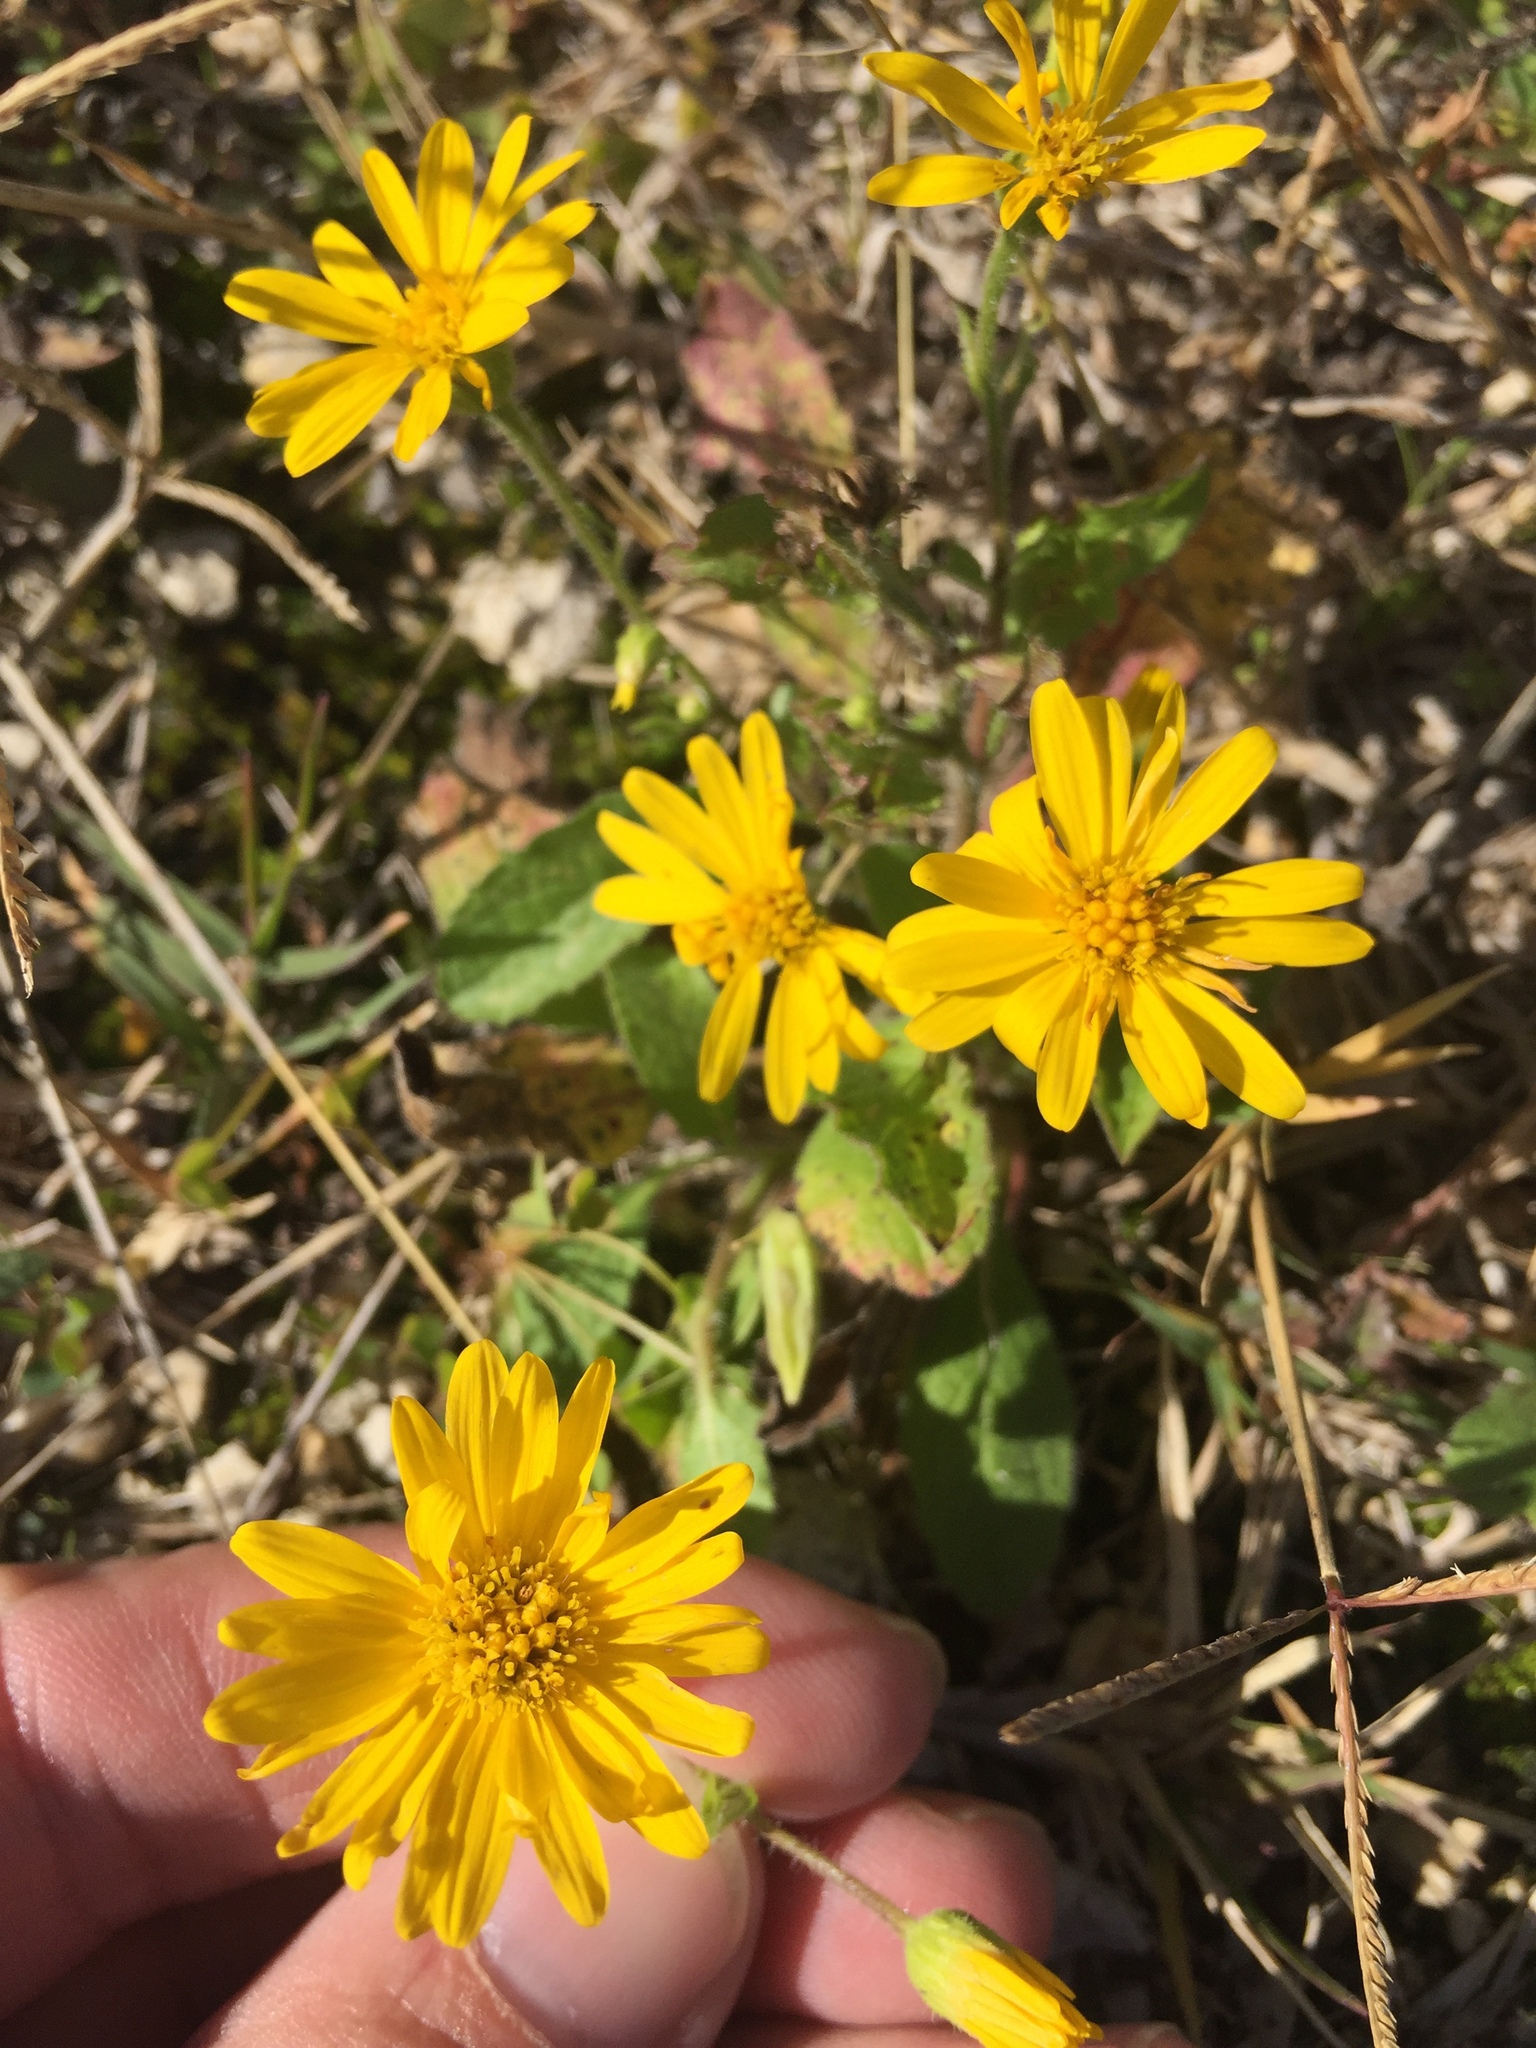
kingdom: Plantae
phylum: Tracheophyta
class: Magnoliopsida
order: Asterales
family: Asteraceae
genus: Heterotheca
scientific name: Heterotheca subaxillaris
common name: Camphorweed
